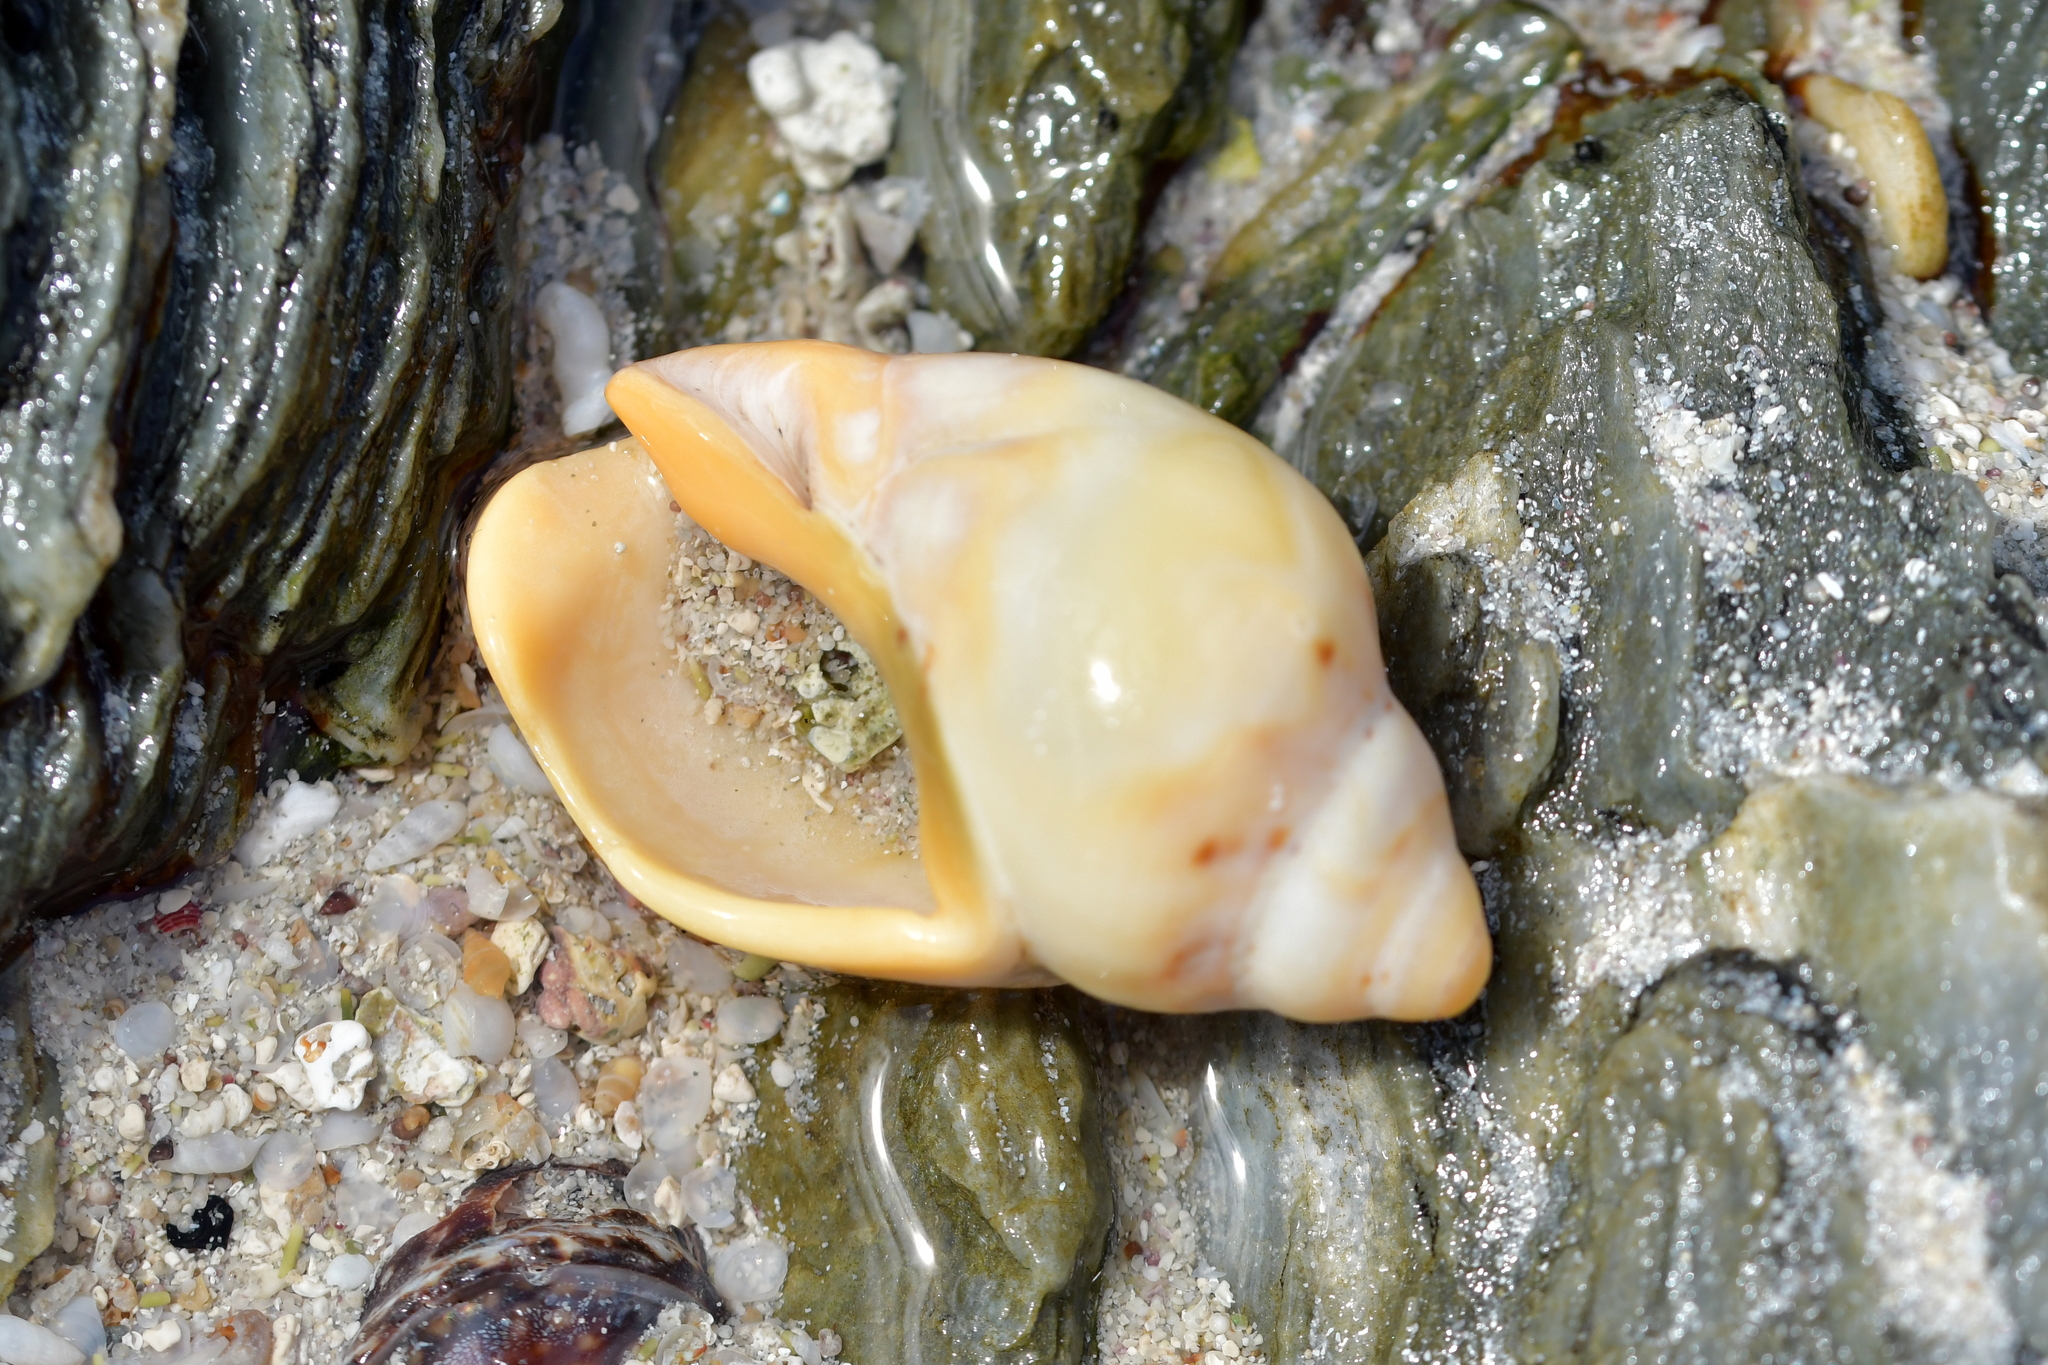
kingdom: Animalia
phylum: Mollusca
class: Gastropoda
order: Neogastropoda
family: Cominellidae
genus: Cominella
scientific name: Cominella adspersa
